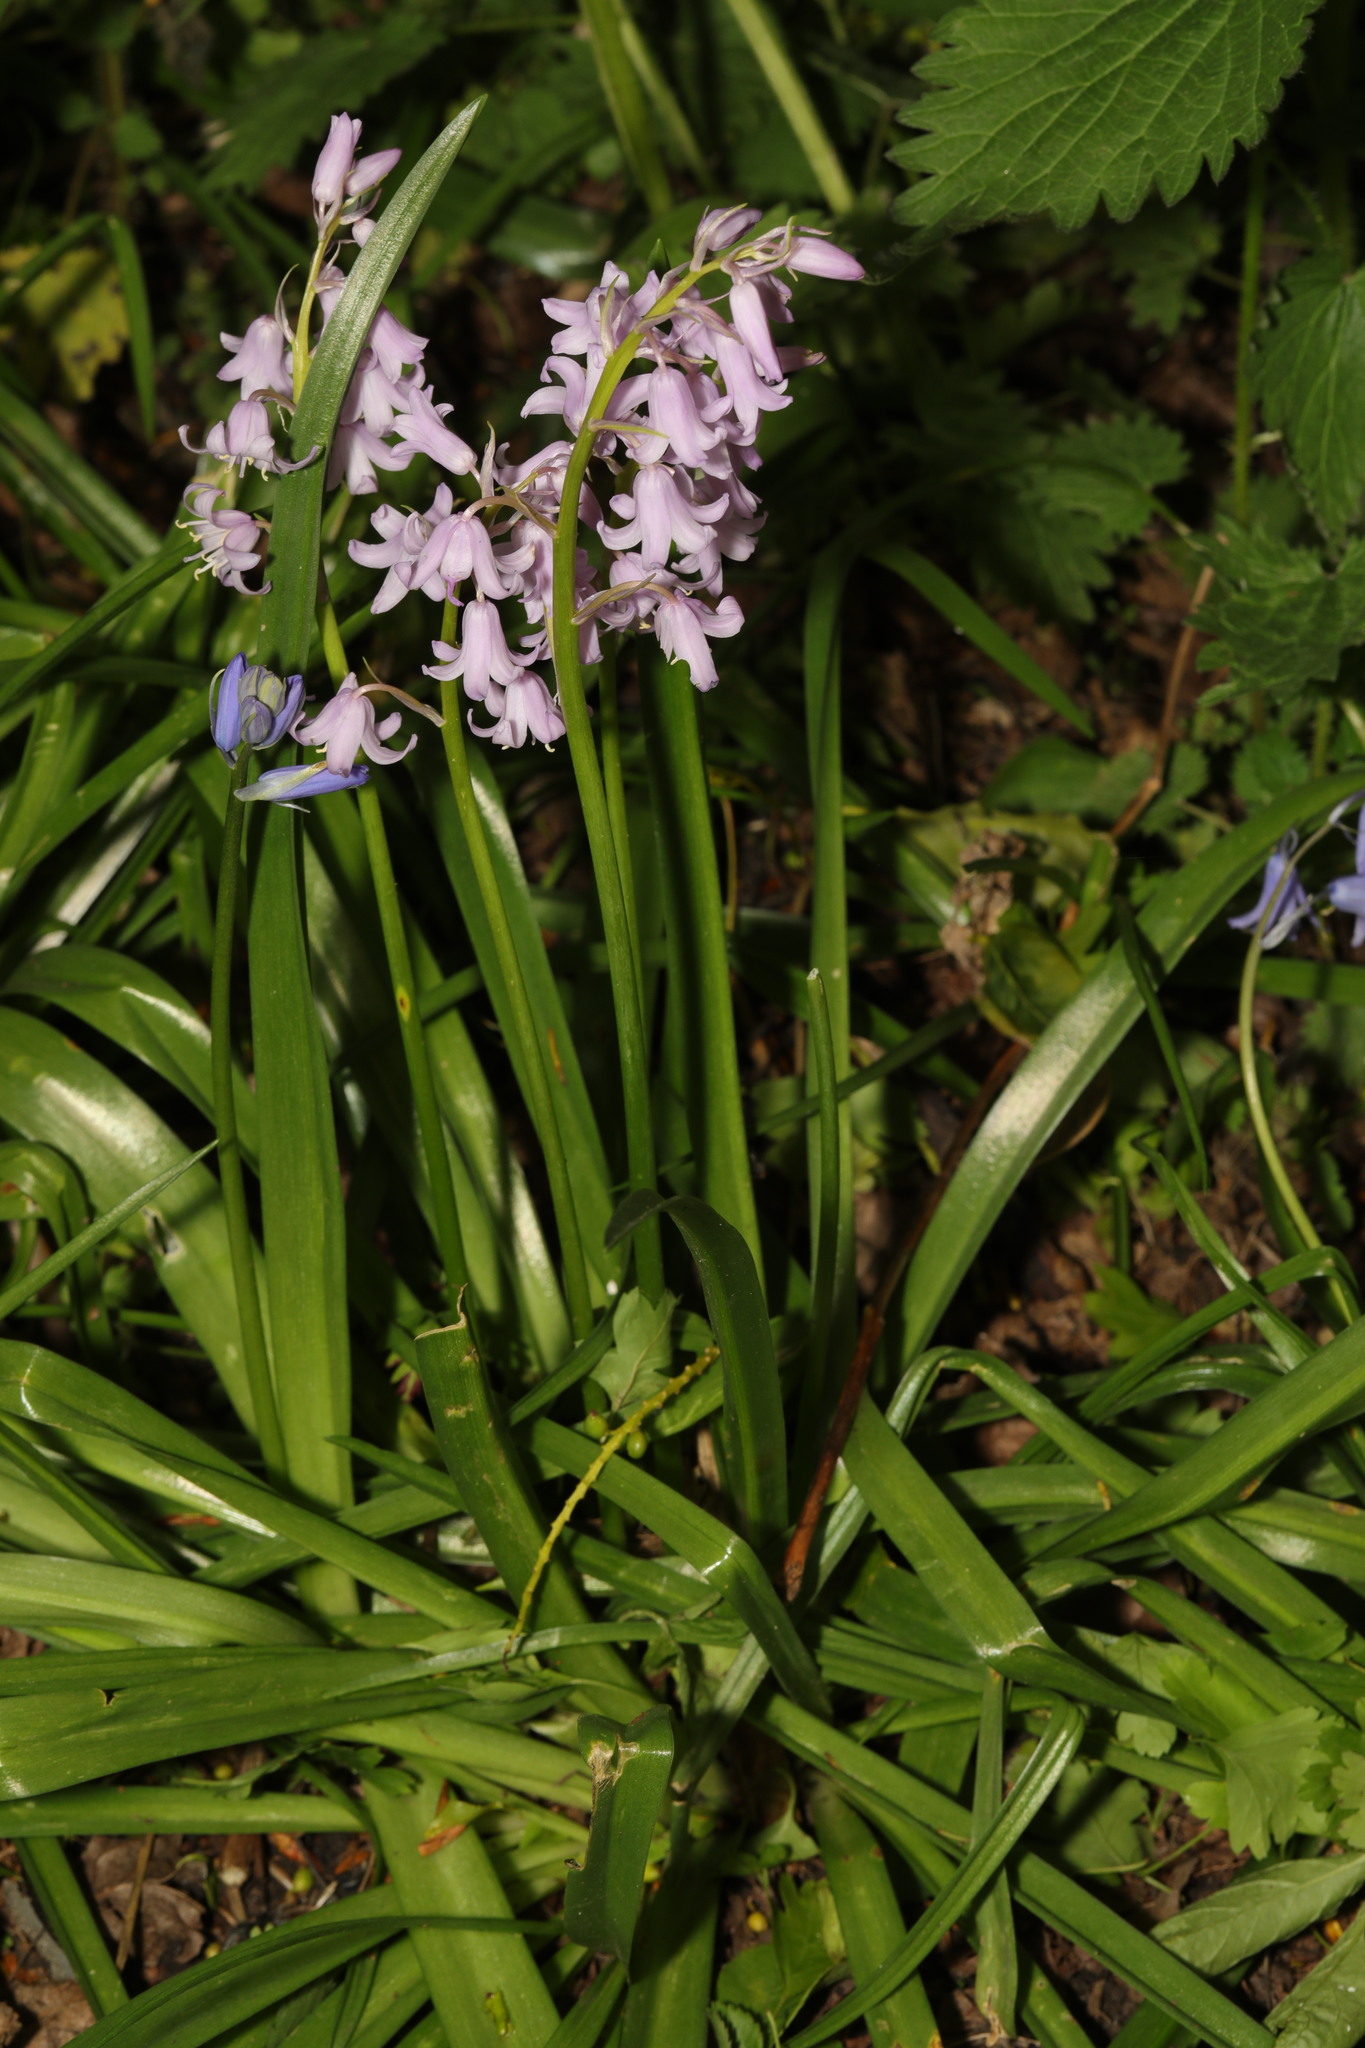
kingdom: Plantae
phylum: Tracheophyta
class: Liliopsida
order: Asparagales
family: Asparagaceae
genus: Hyacinthoides
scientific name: Hyacinthoides hispanica
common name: Spanish bluebell
